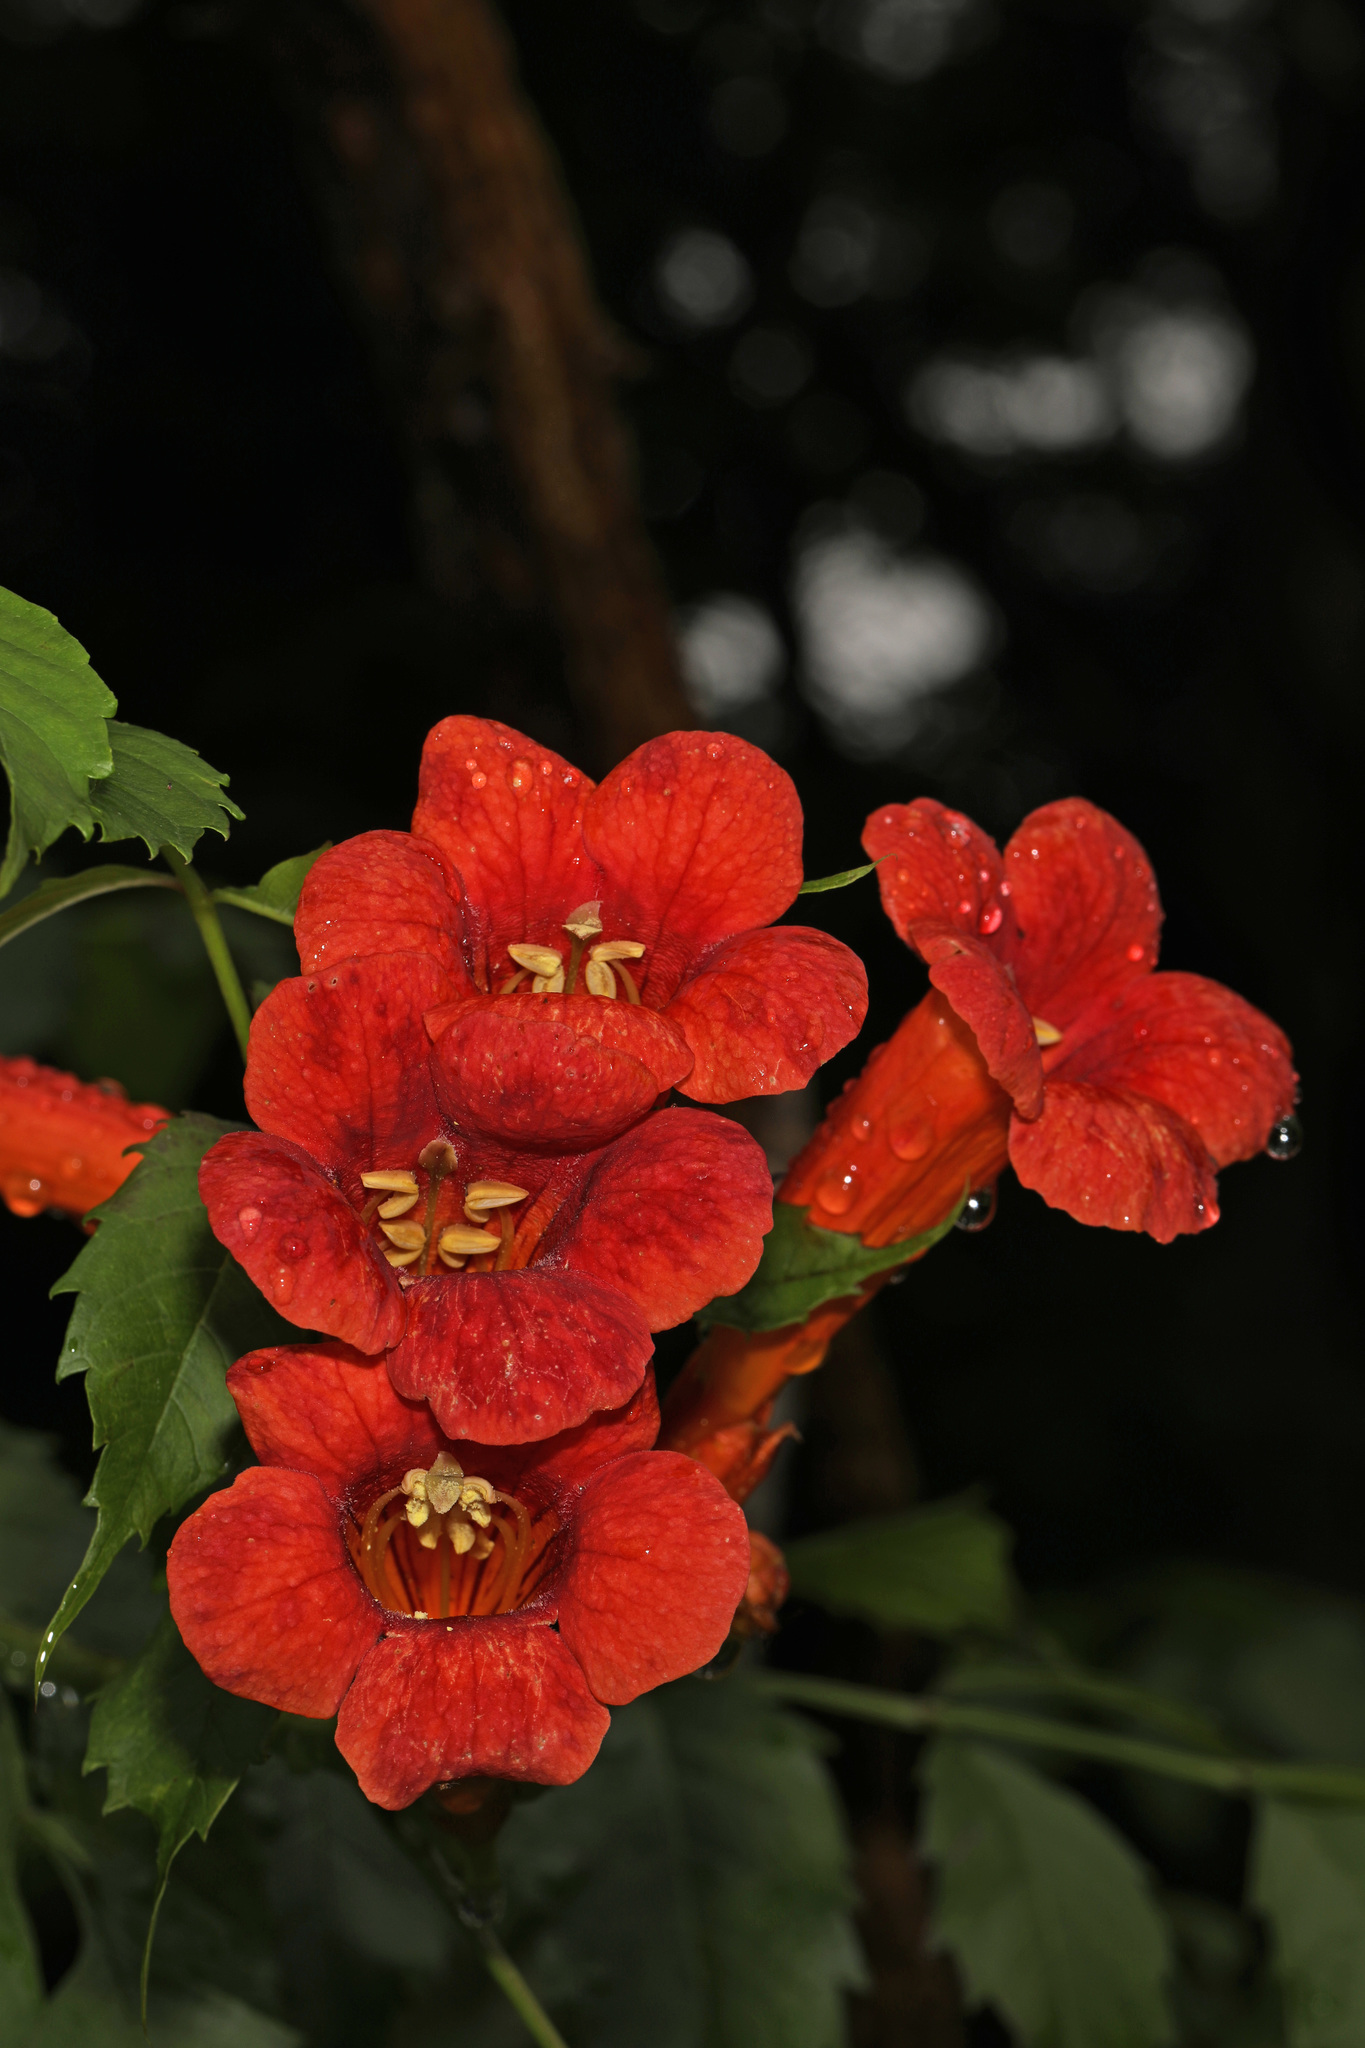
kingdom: Plantae
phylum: Tracheophyta
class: Magnoliopsida
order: Lamiales
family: Bignoniaceae
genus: Campsis
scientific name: Campsis radicans
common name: Trumpet-creeper
